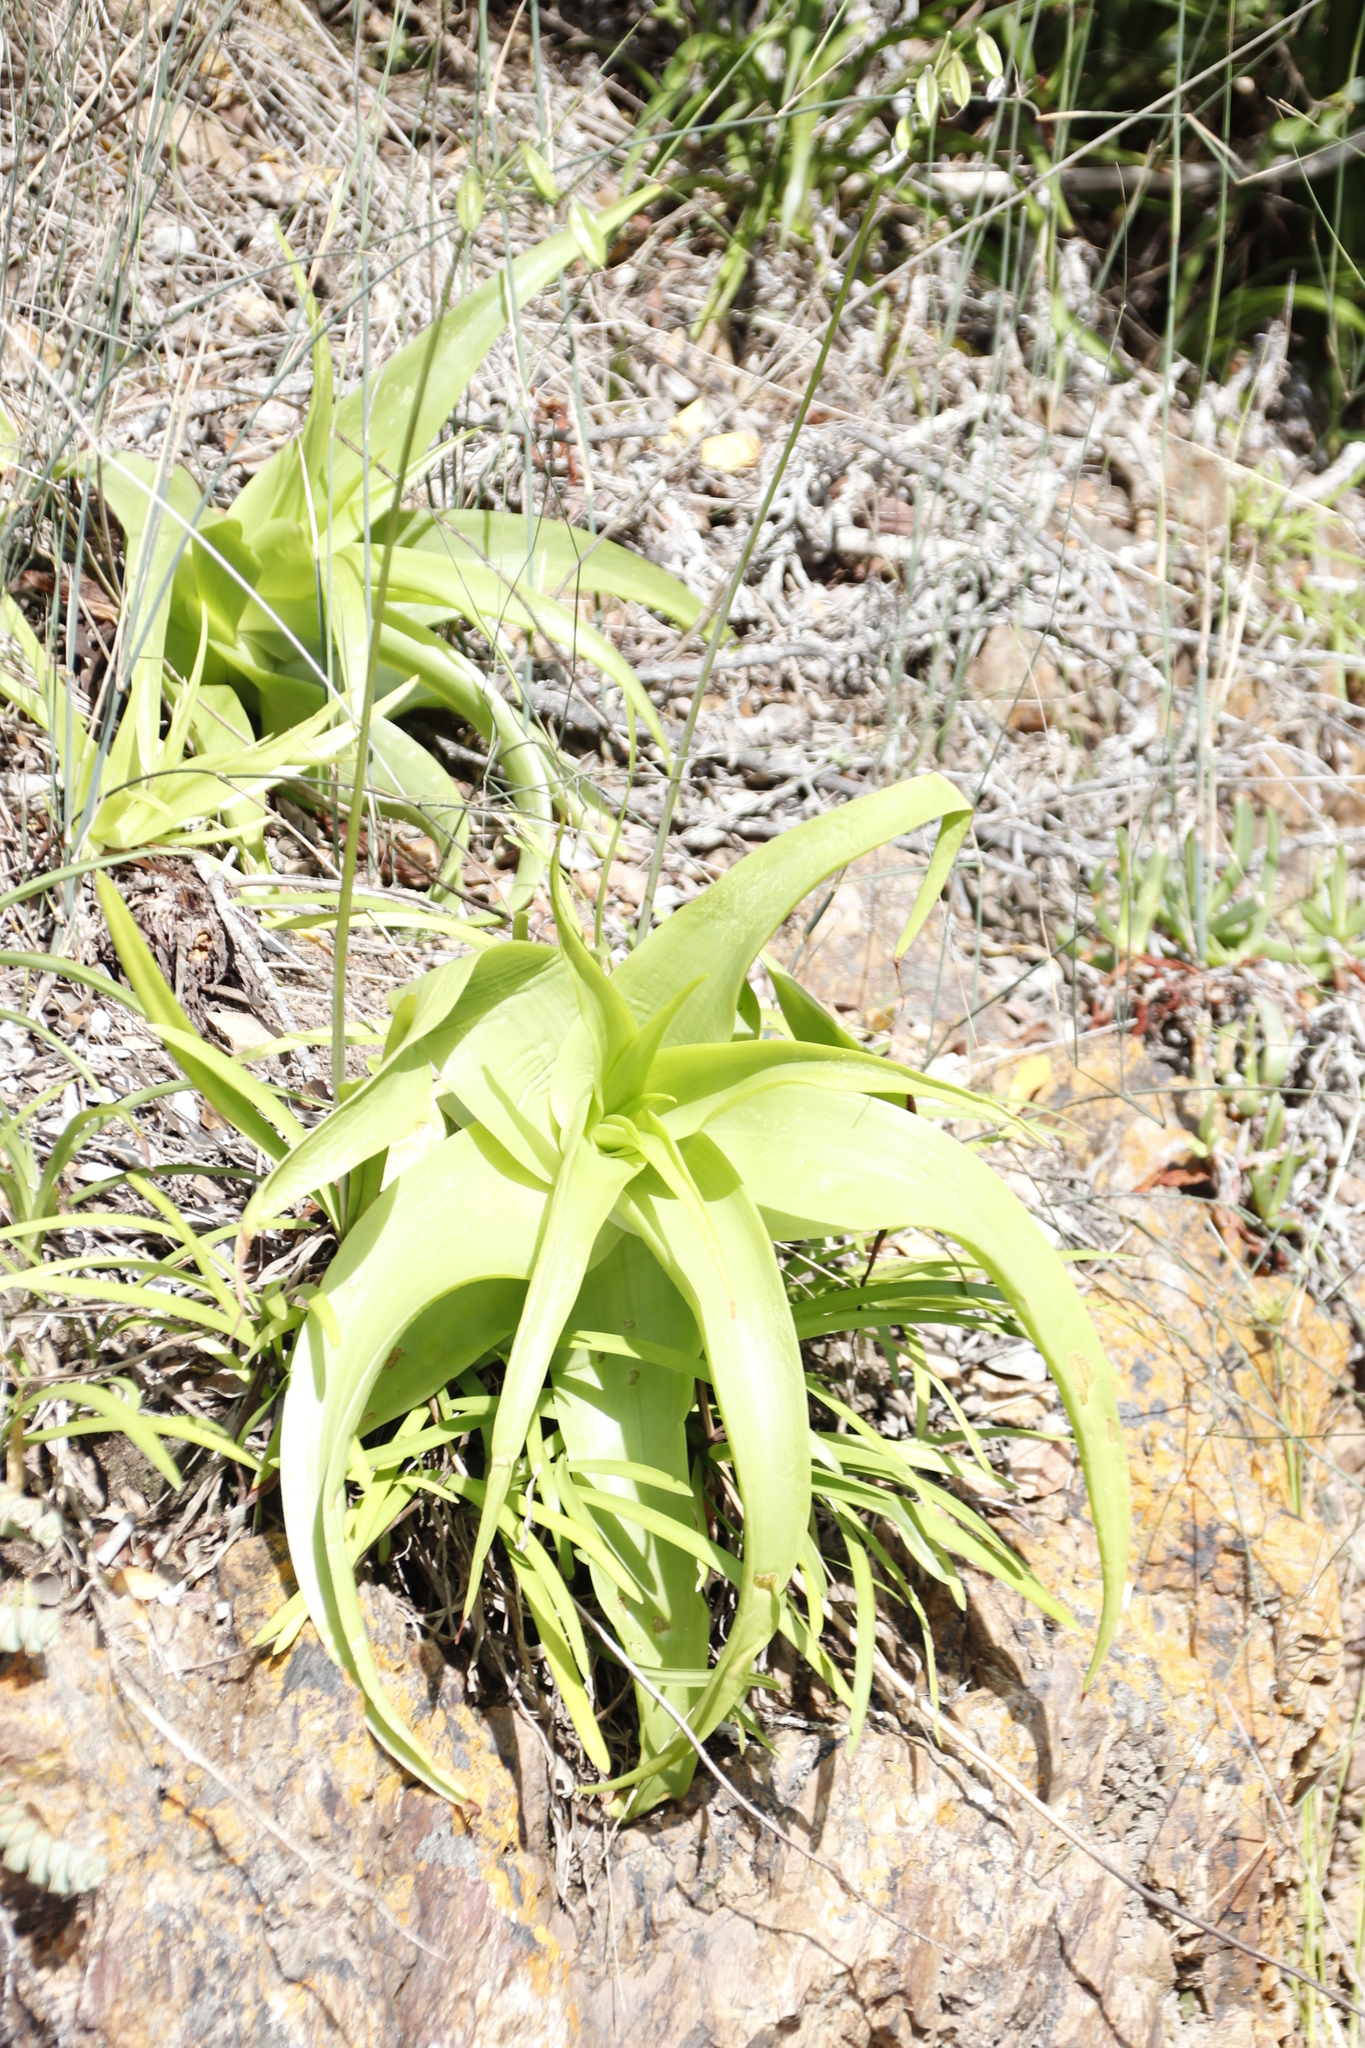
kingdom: Plantae
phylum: Tracheophyta
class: Liliopsida
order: Asparagales
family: Asphodelaceae
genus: Bulbine
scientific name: Bulbine latifolia
